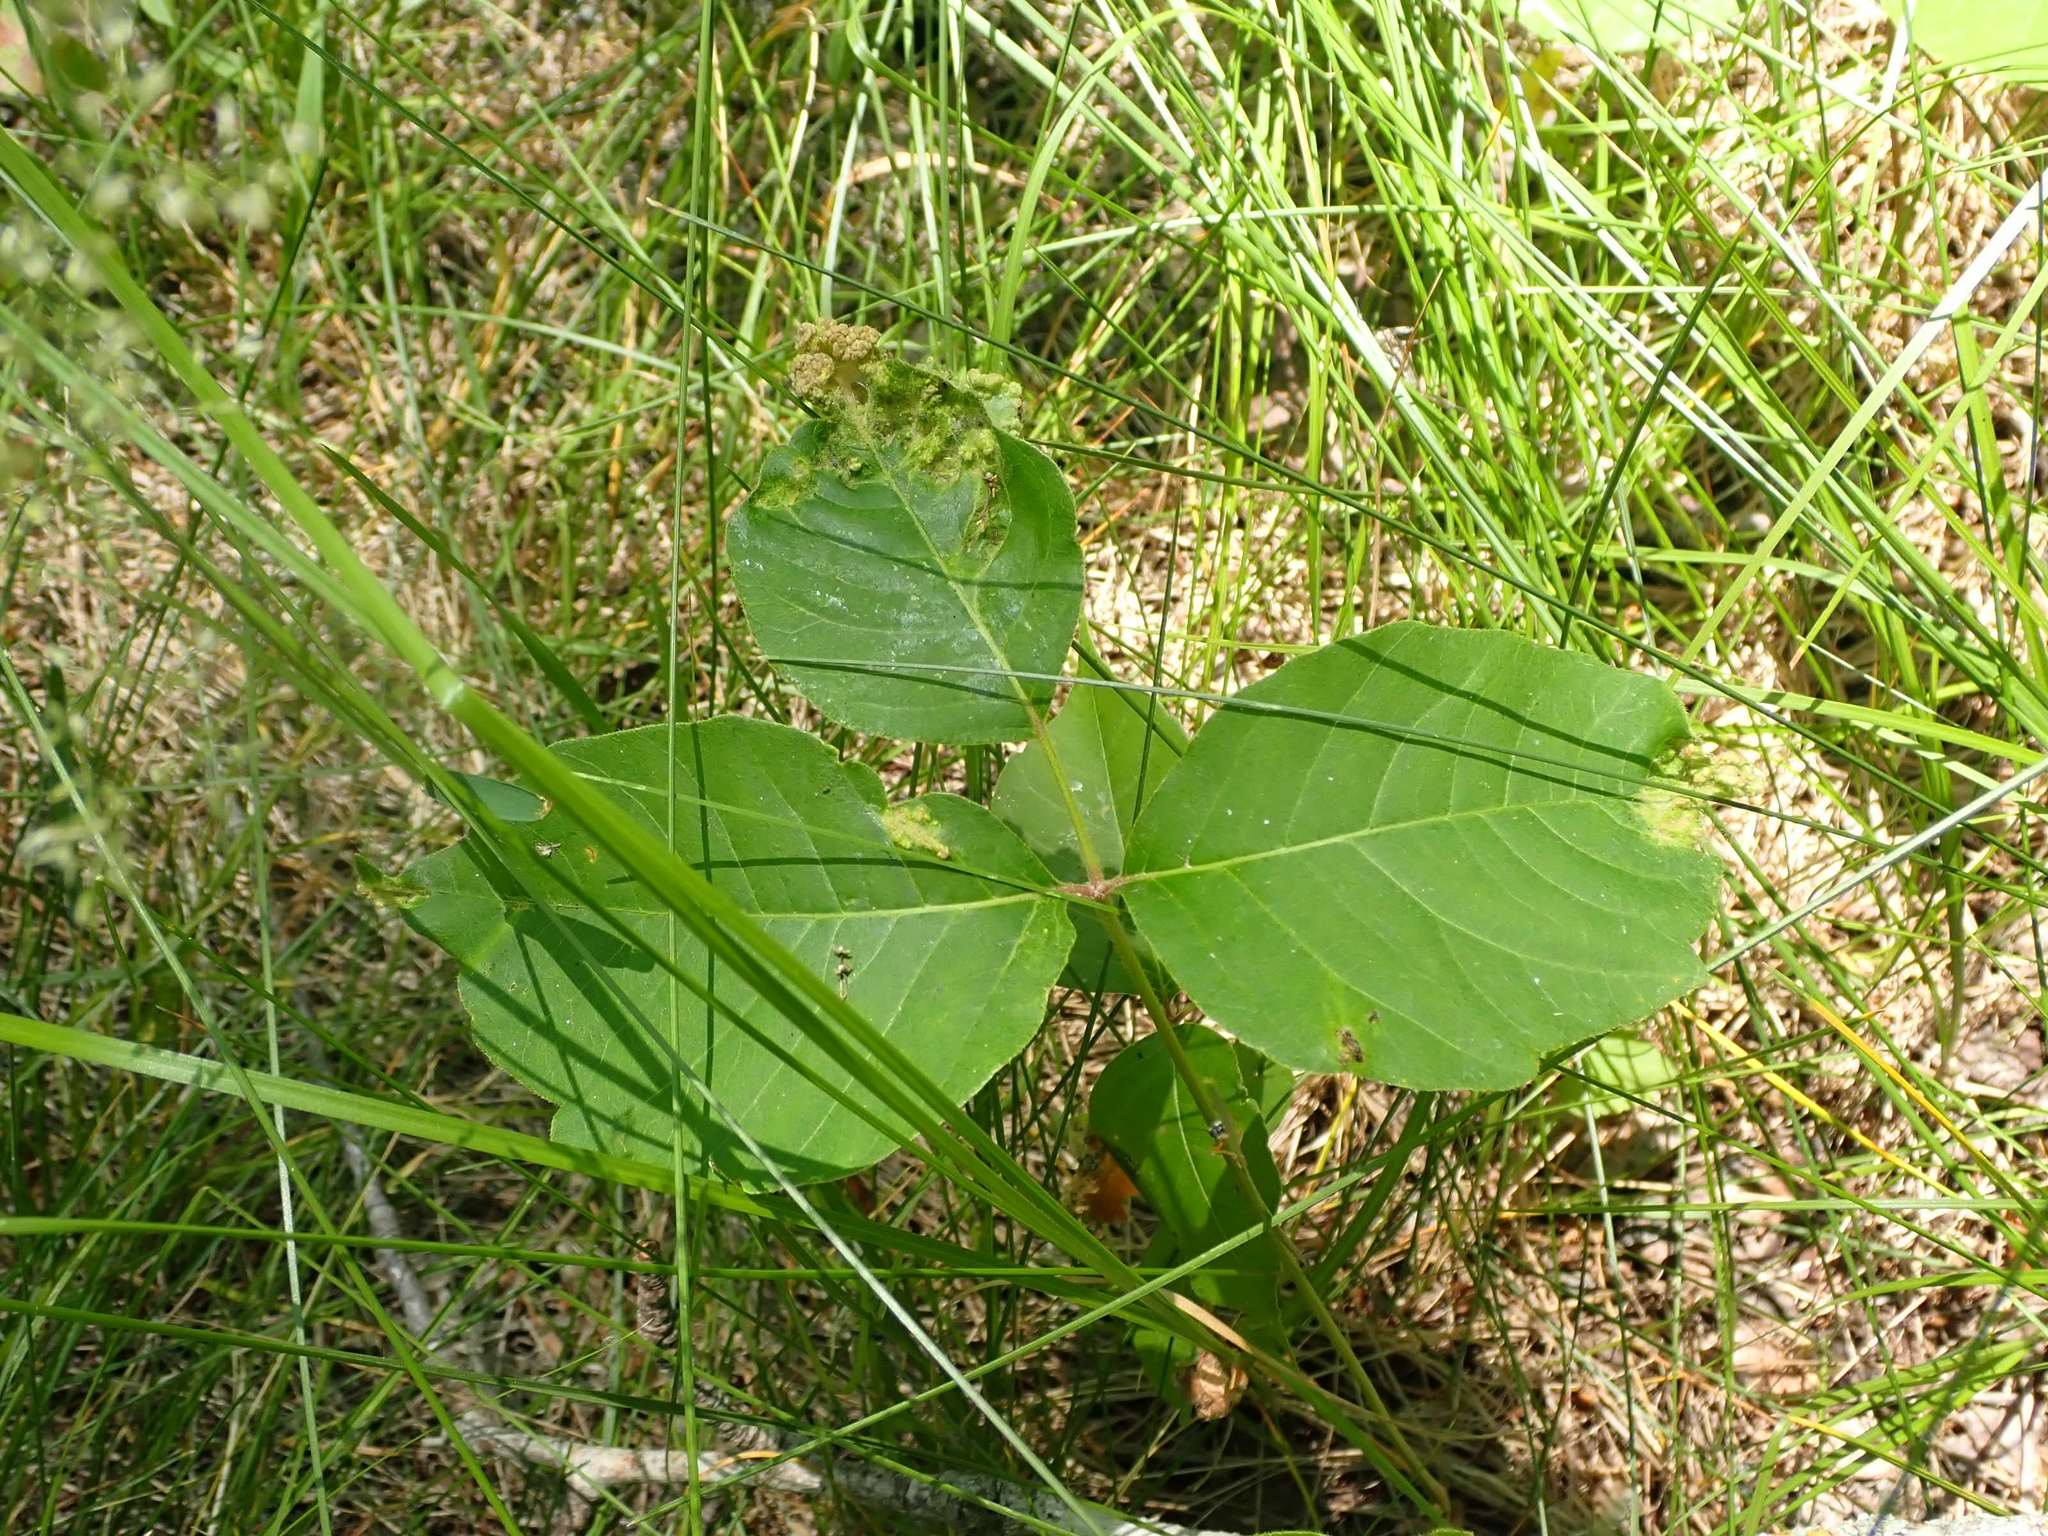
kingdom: Plantae
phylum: Tracheophyta
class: Magnoliopsida
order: Sapindales
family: Anacardiaceae
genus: Toxicodendron
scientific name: Toxicodendron rydbergii
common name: Rydberg's poison-ivy
